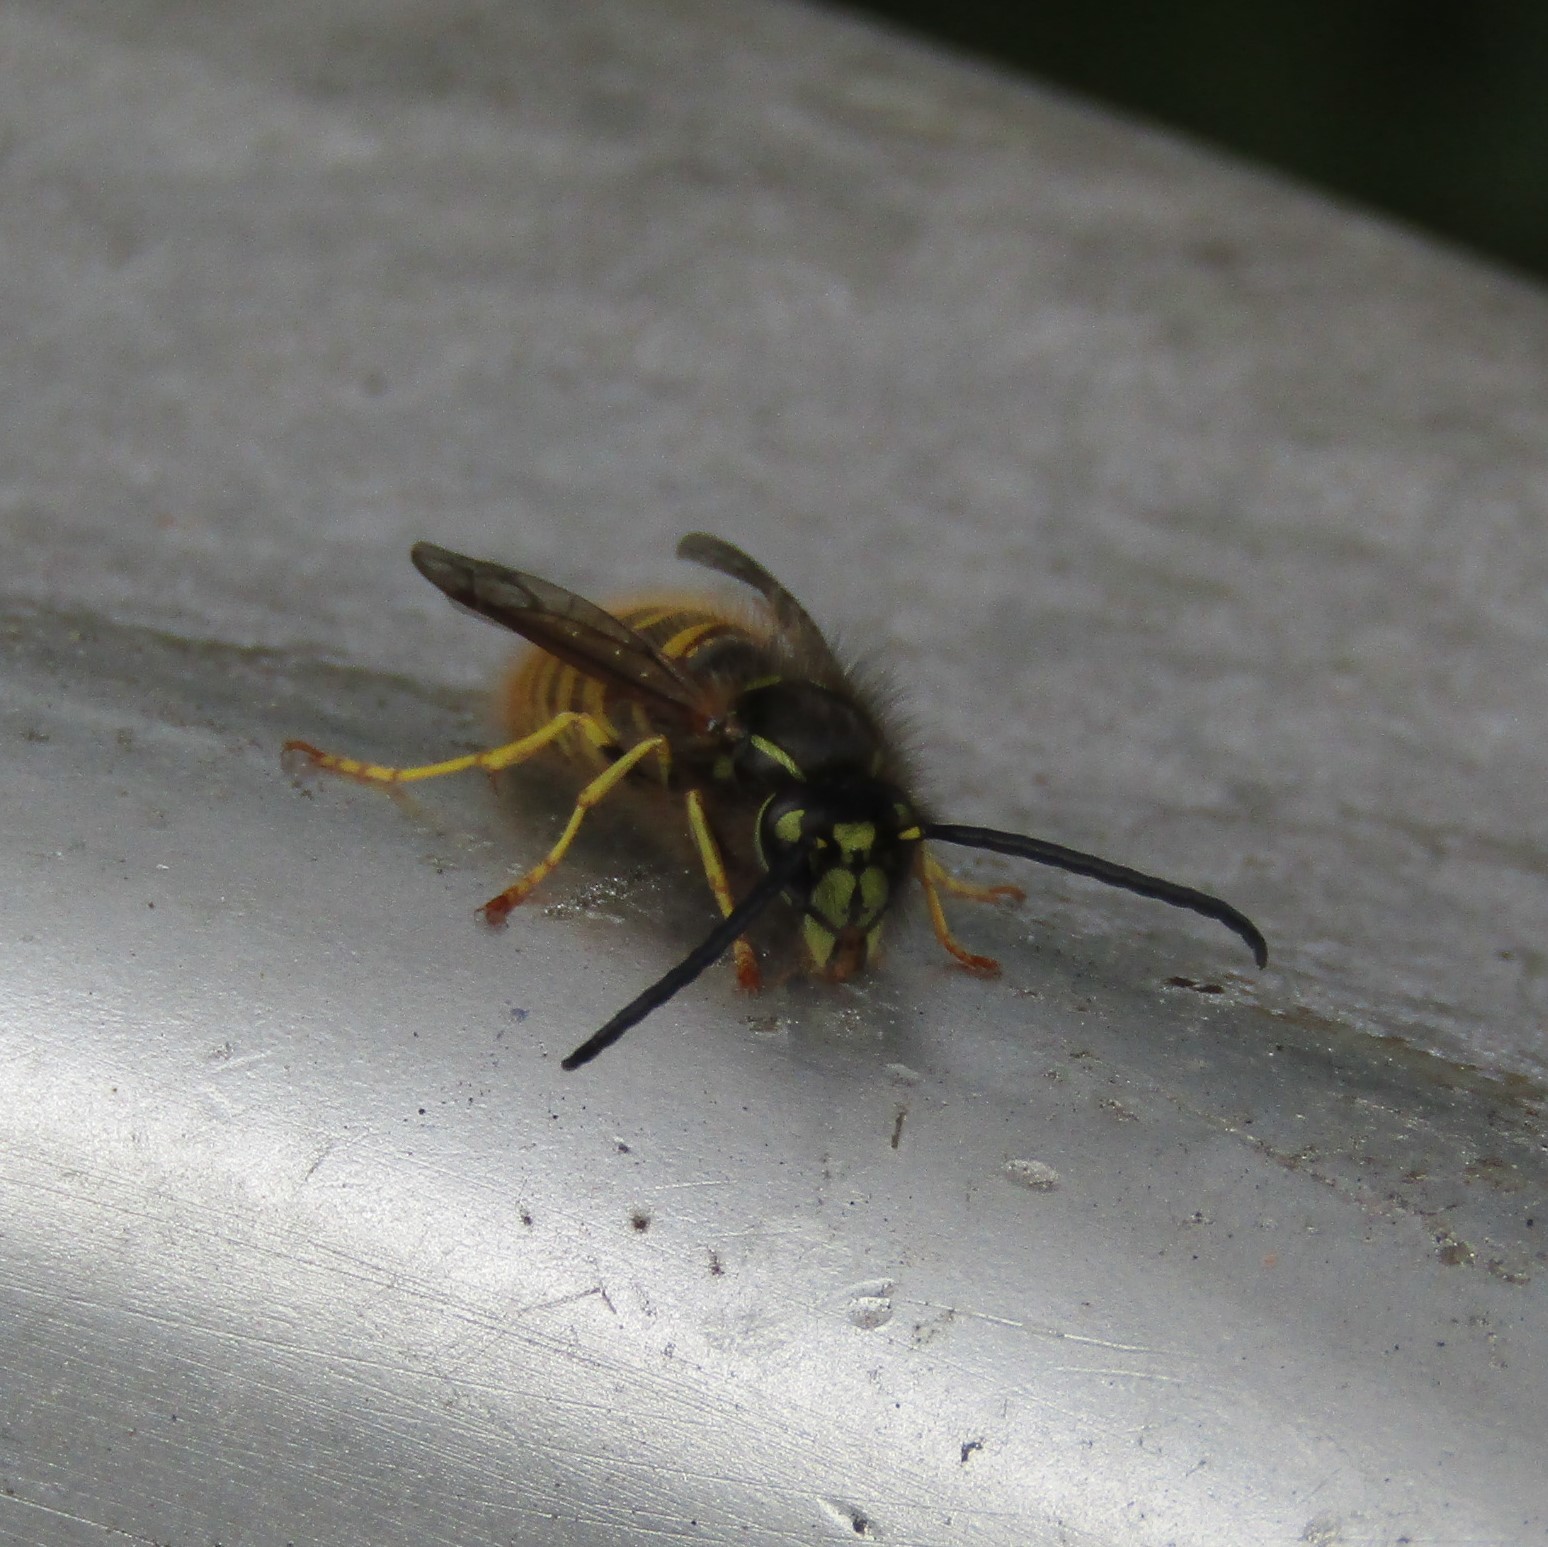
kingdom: Animalia
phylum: Arthropoda
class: Insecta
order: Hymenoptera
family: Vespidae
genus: Vespula
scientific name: Vespula vulgaris
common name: Common wasp
